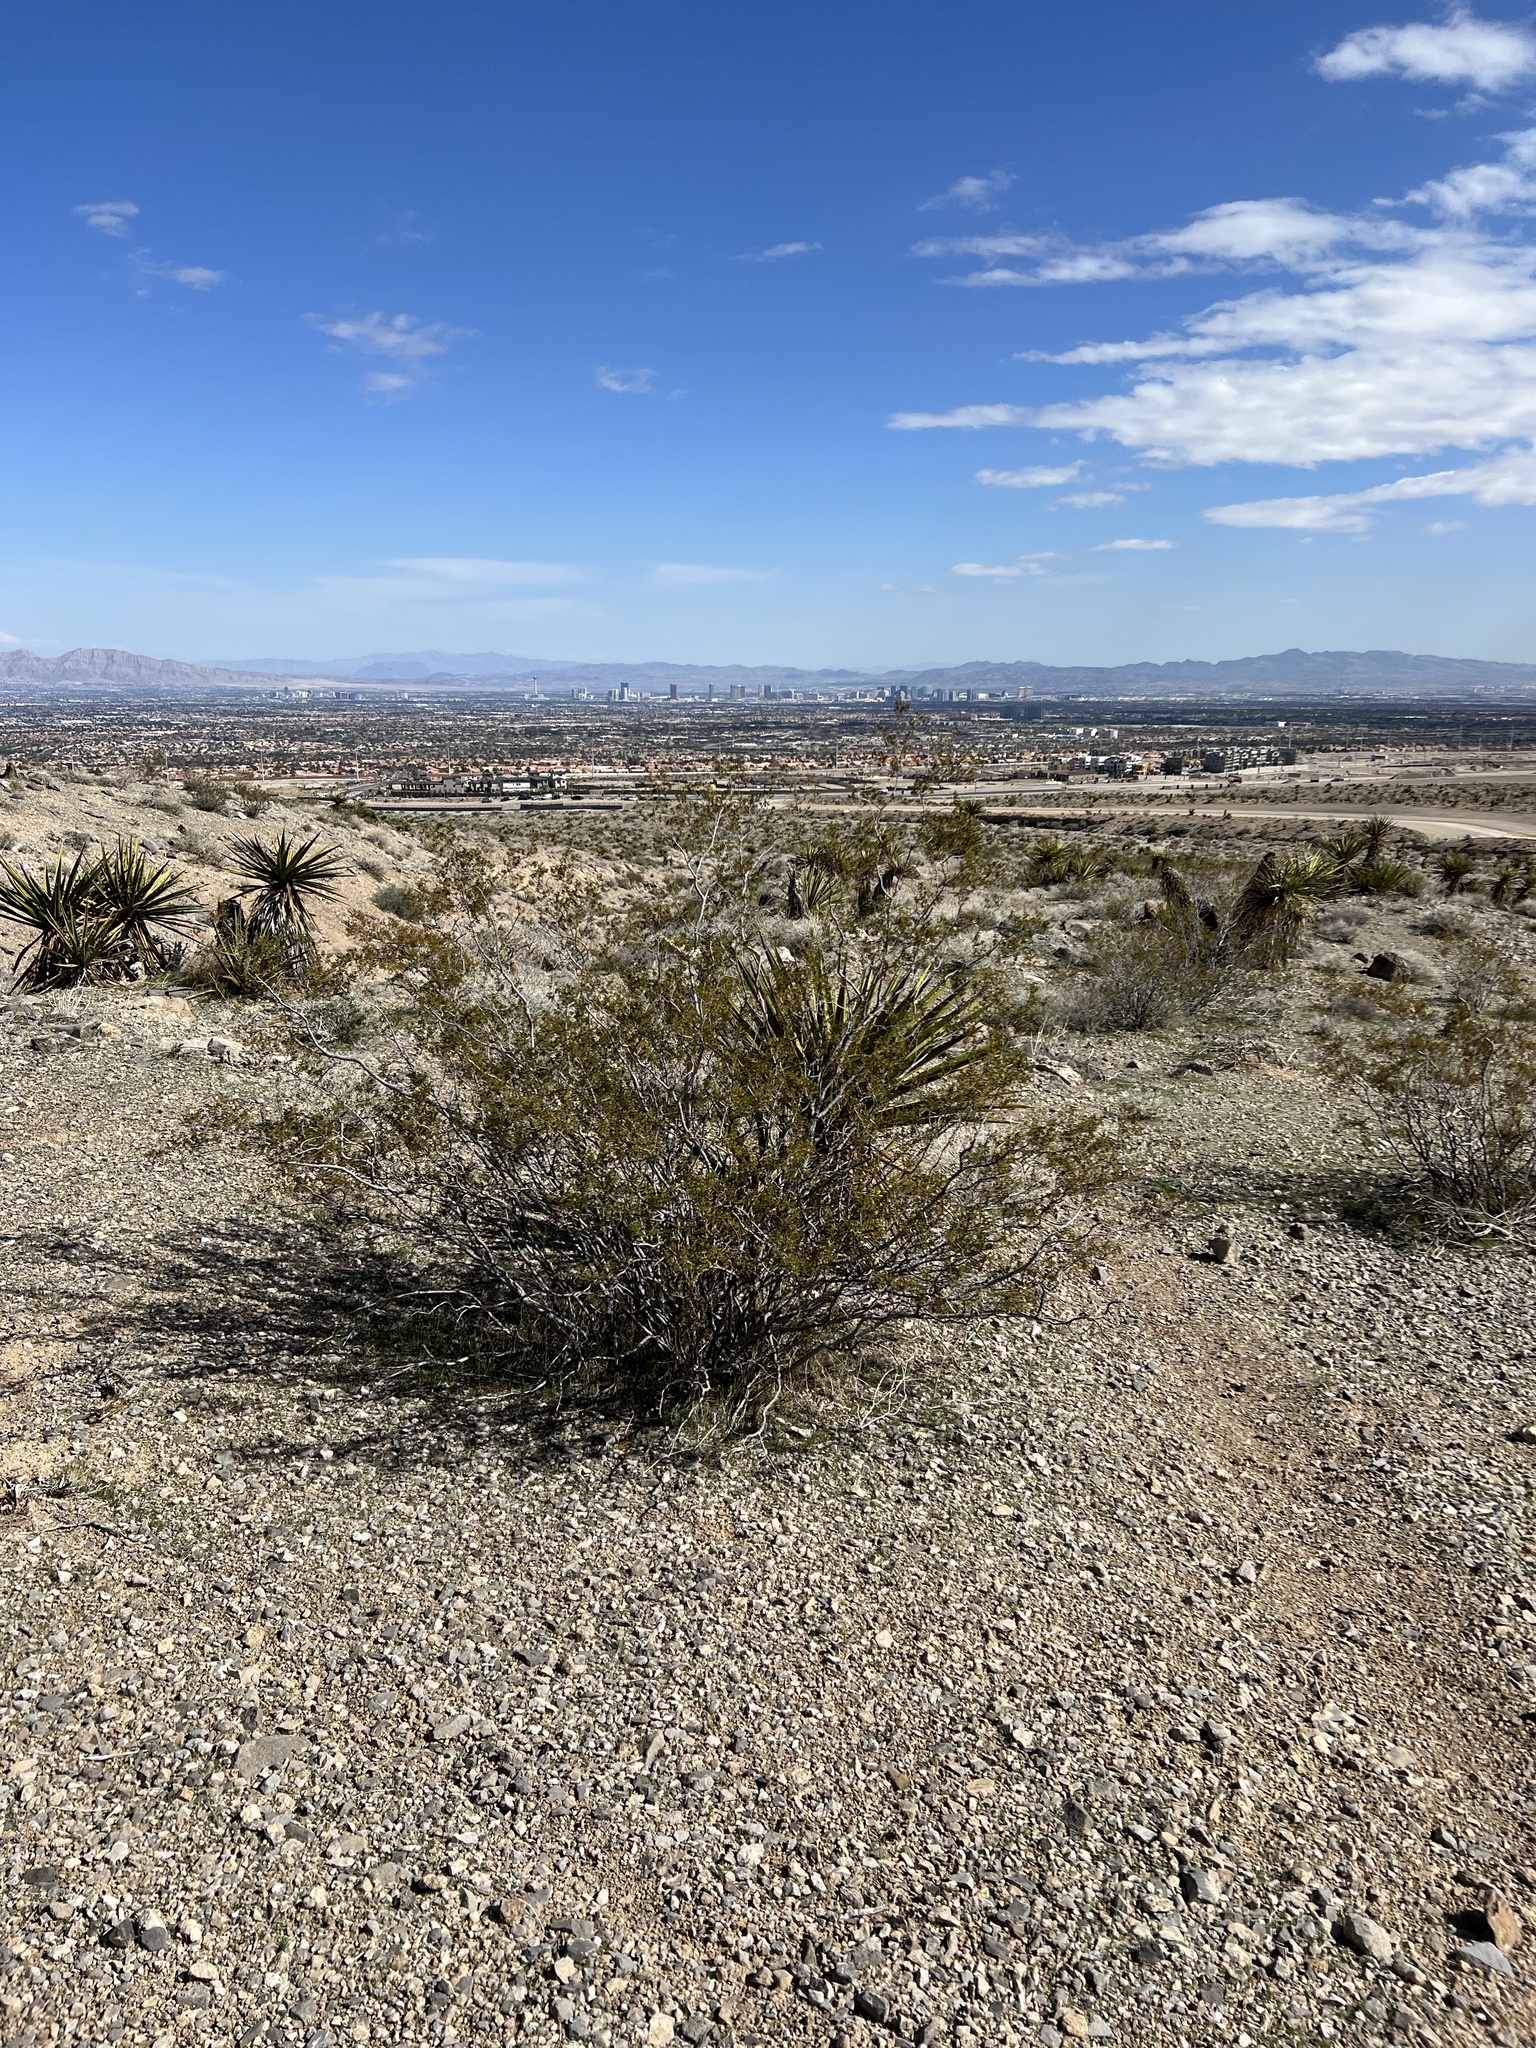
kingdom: Plantae
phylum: Tracheophyta
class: Magnoliopsida
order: Zygophyllales
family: Zygophyllaceae
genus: Larrea
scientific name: Larrea tridentata
